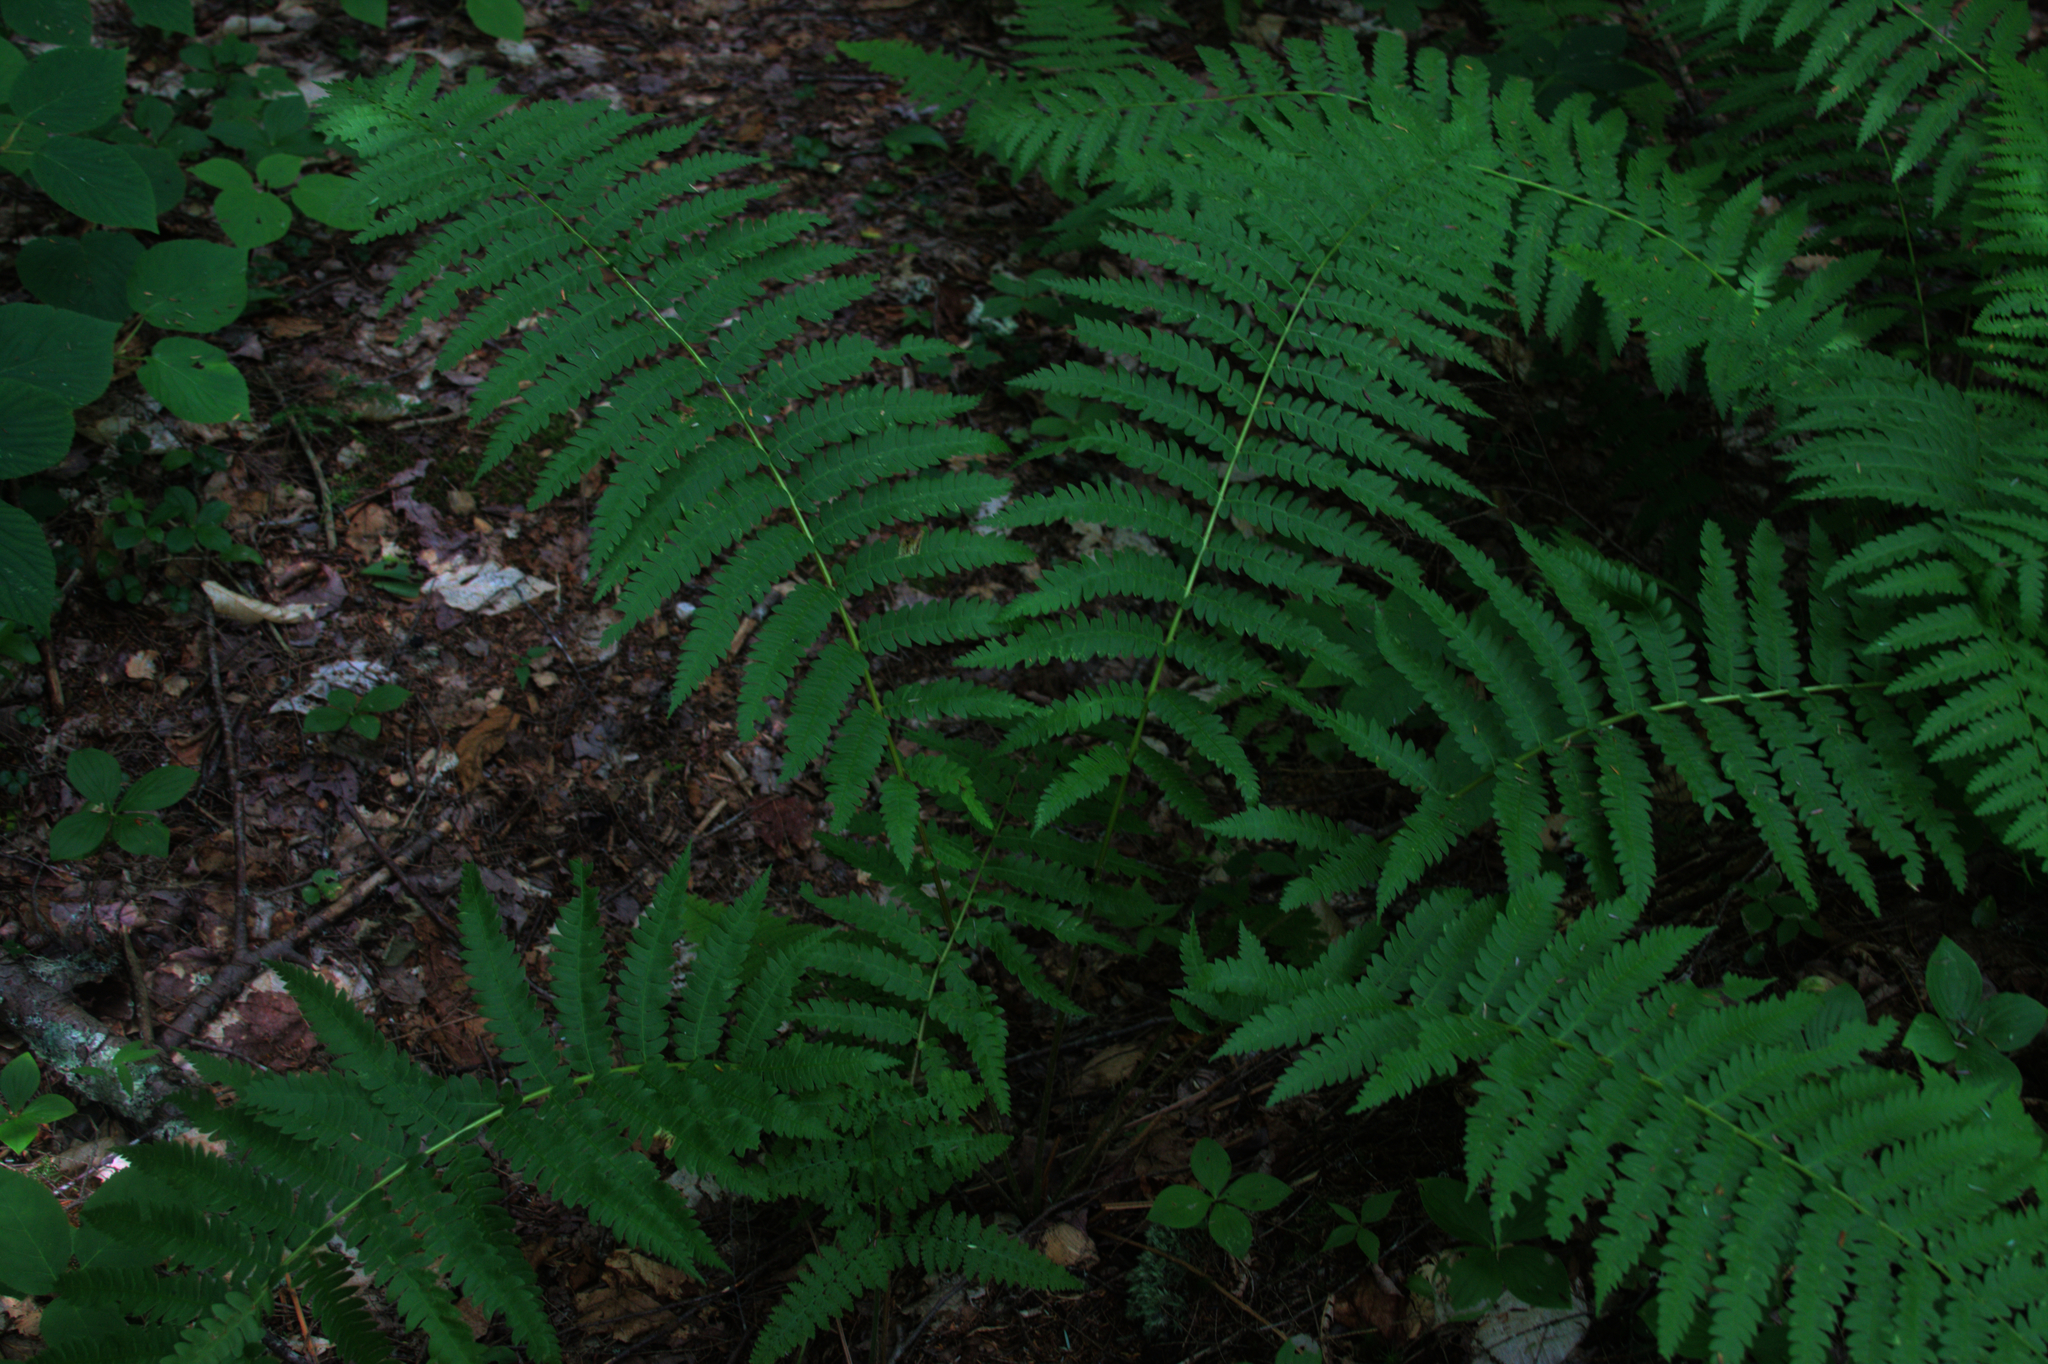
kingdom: Plantae
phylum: Tracheophyta
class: Polypodiopsida
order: Osmundales
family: Osmundaceae
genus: Osmundastrum
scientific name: Osmundastrum cinnamomeum
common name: Cinnamon fern
